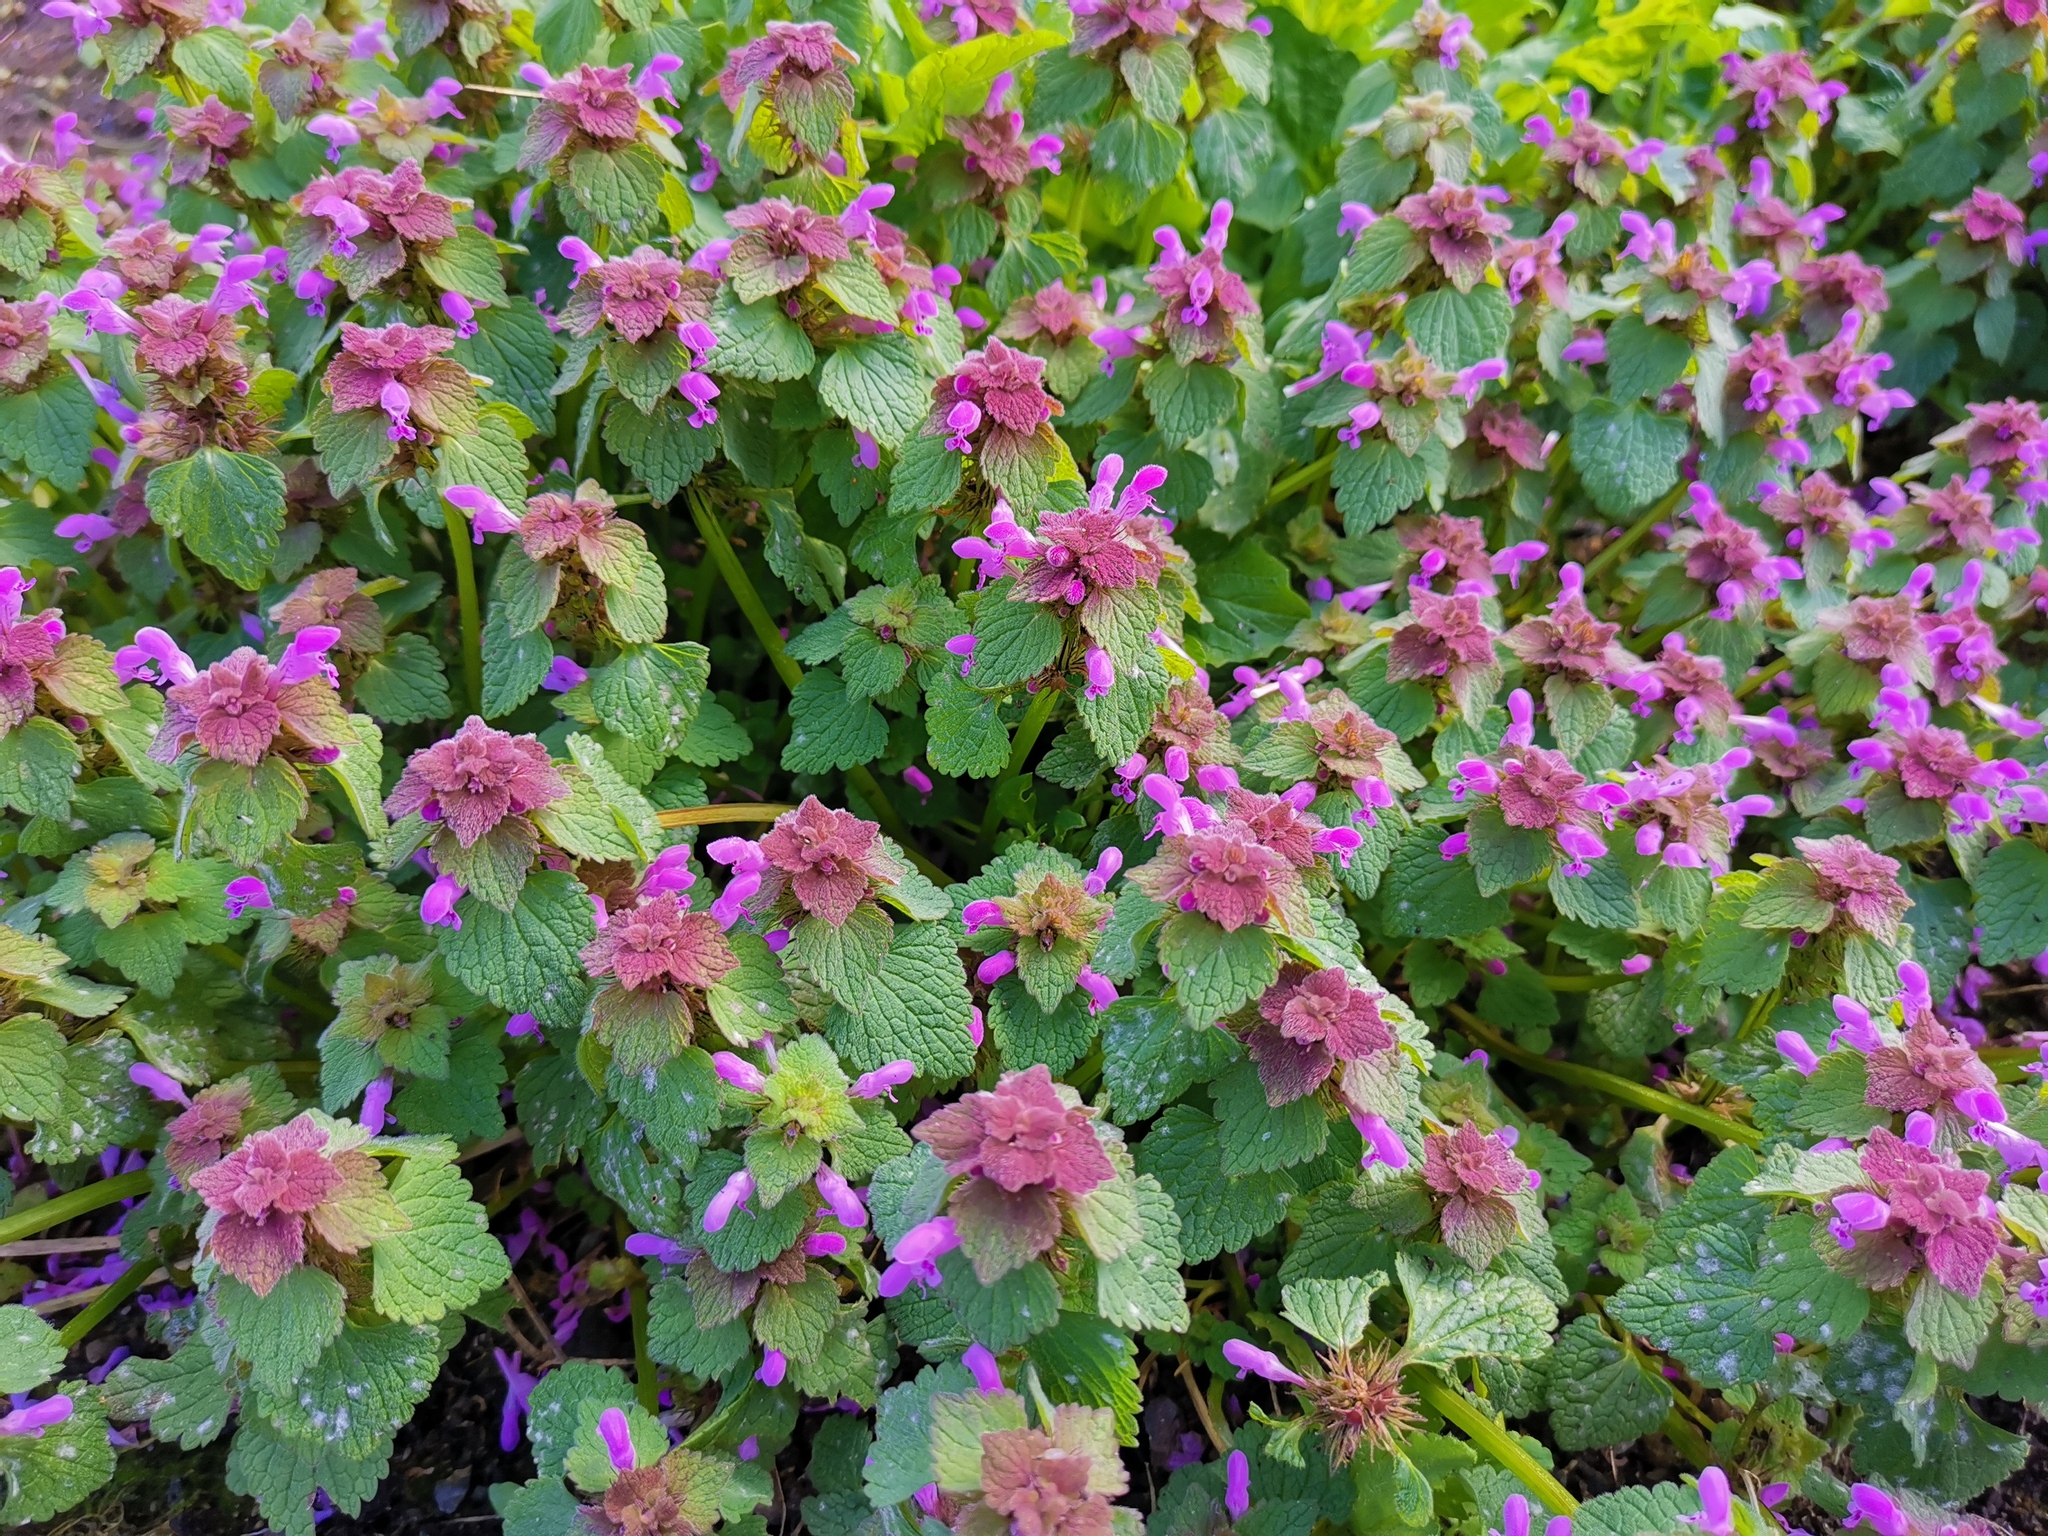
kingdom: Plantae
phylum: Tracheophyta
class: Magnoliopsida
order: Lamiales
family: Lamiaceae
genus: Lamium
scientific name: Lamium purpureum
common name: Red dead-nettle
